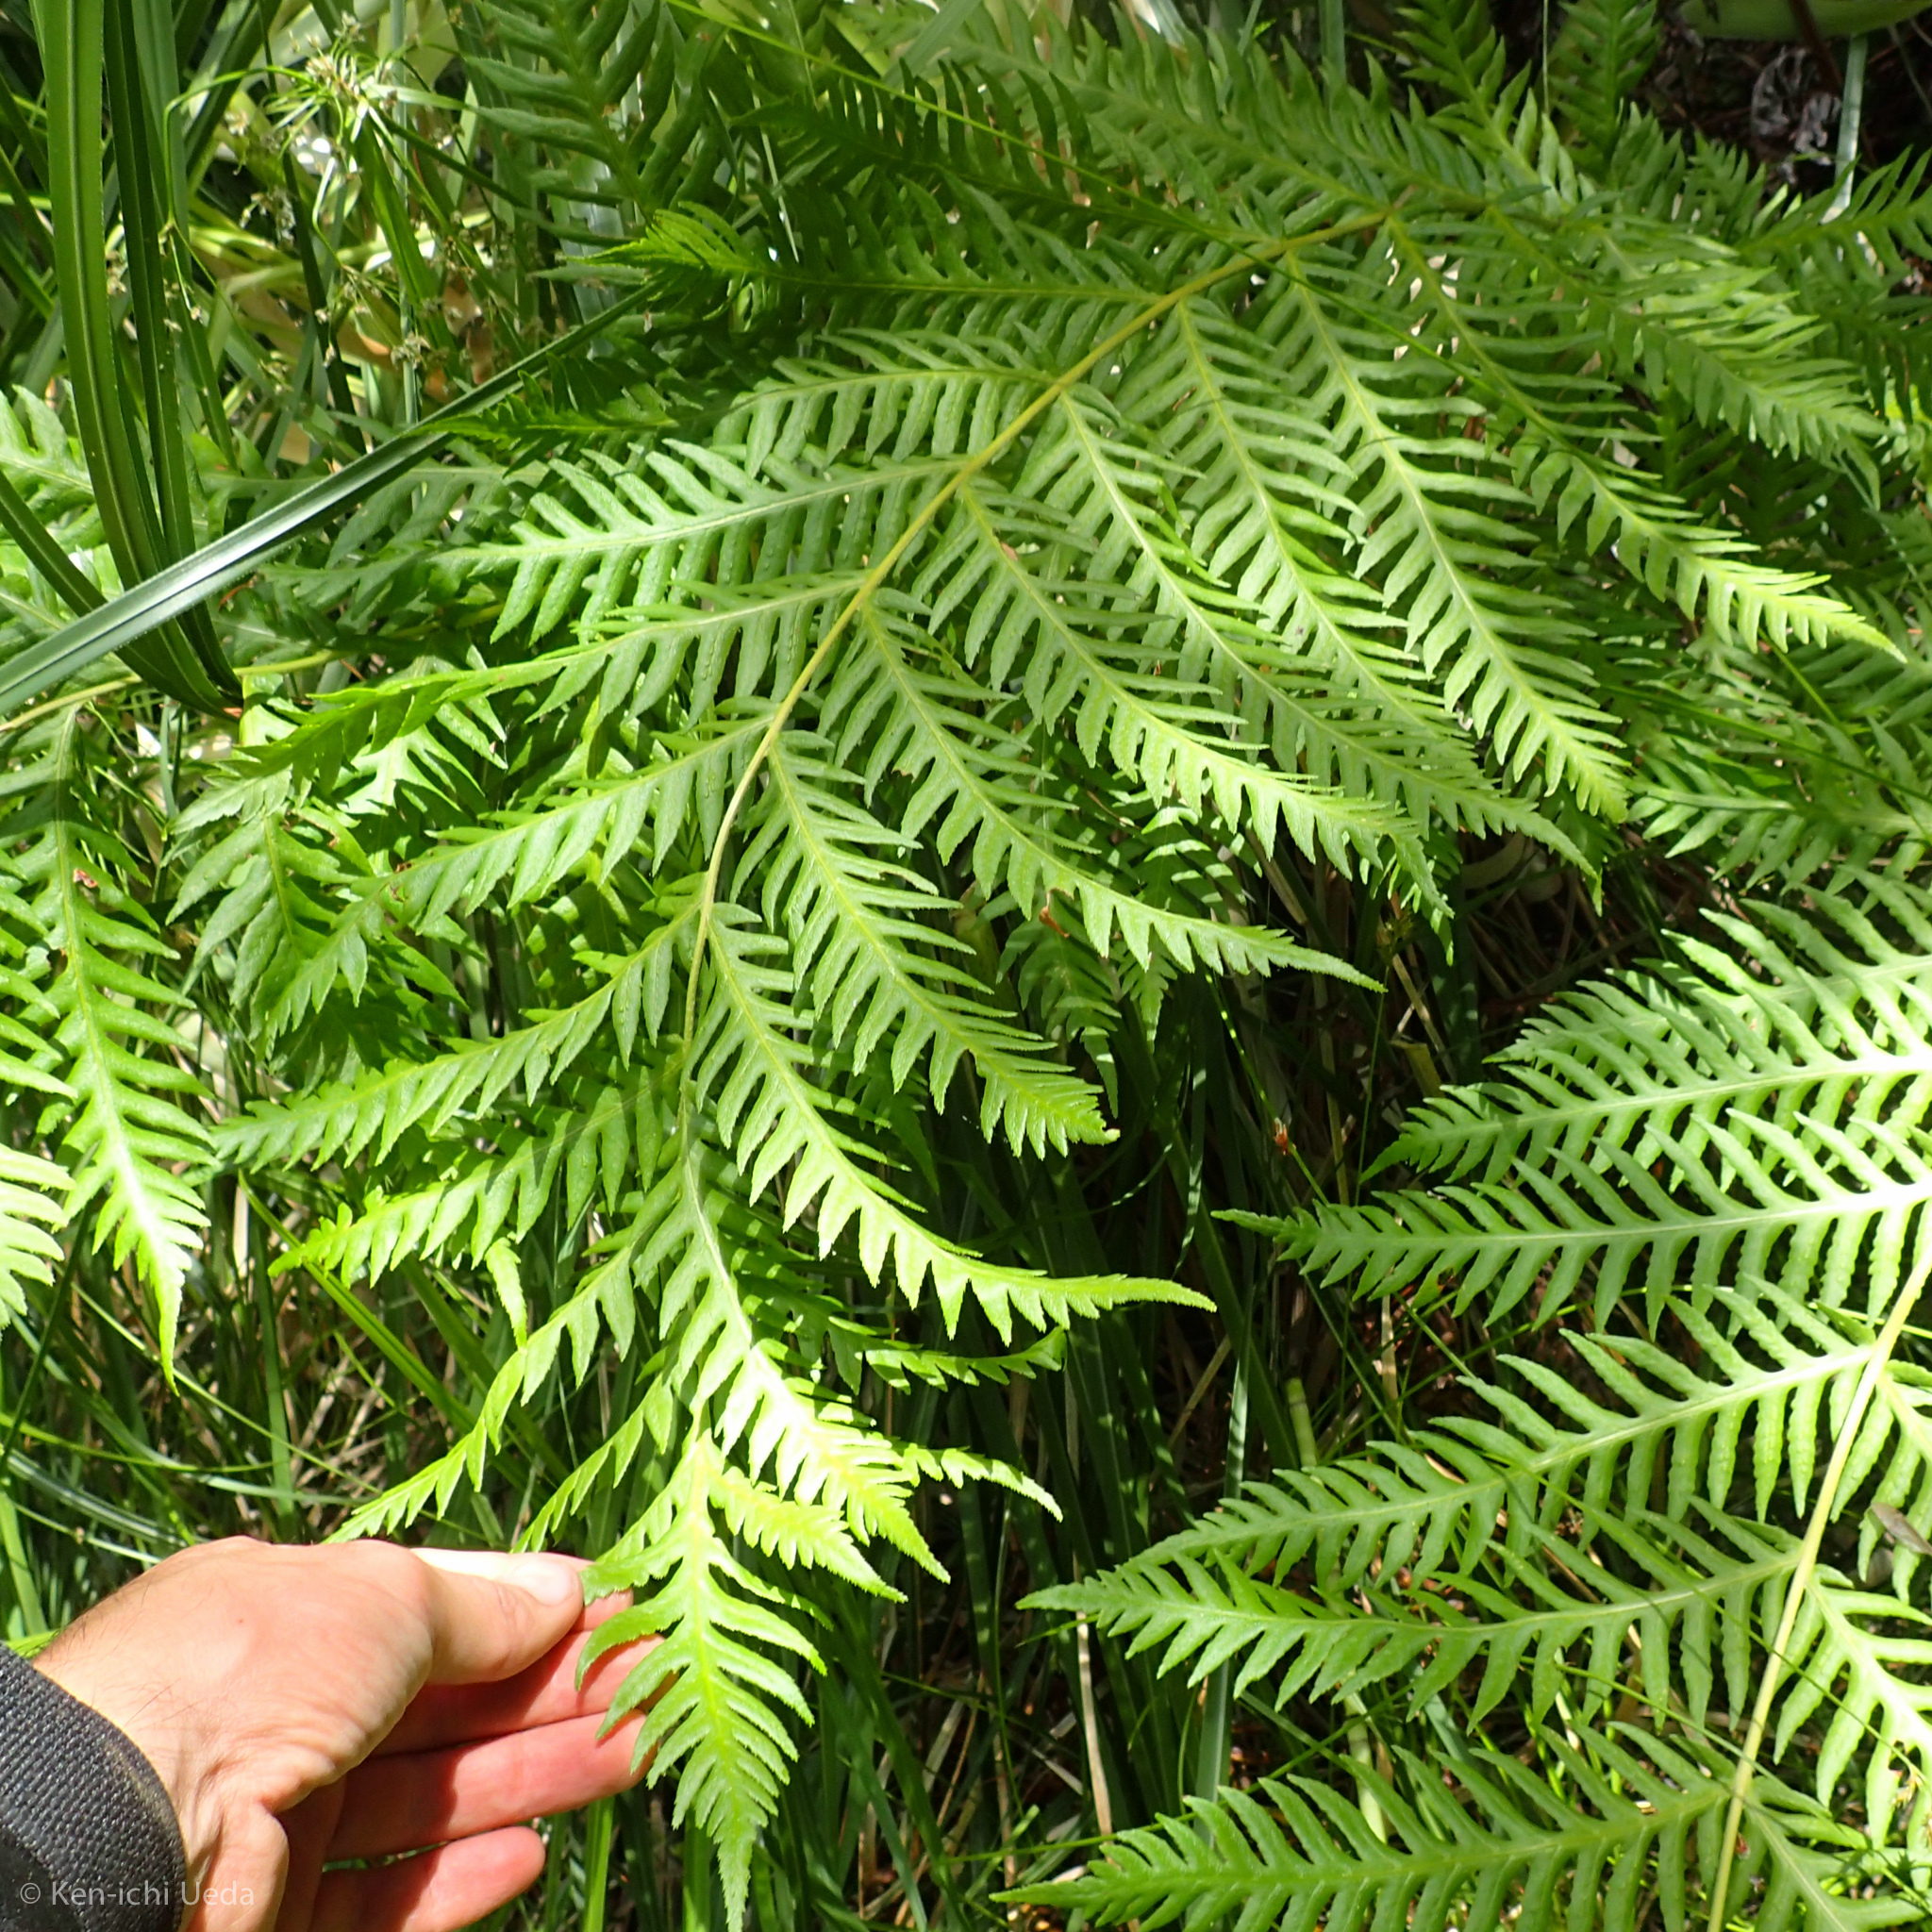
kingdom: Plantae
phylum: Tracheophyta
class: Polypodiopsida
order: Polypodiales
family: Blechnaceae
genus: Woodwardia
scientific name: Woodwardia fimbriata
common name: Giant chain fern
